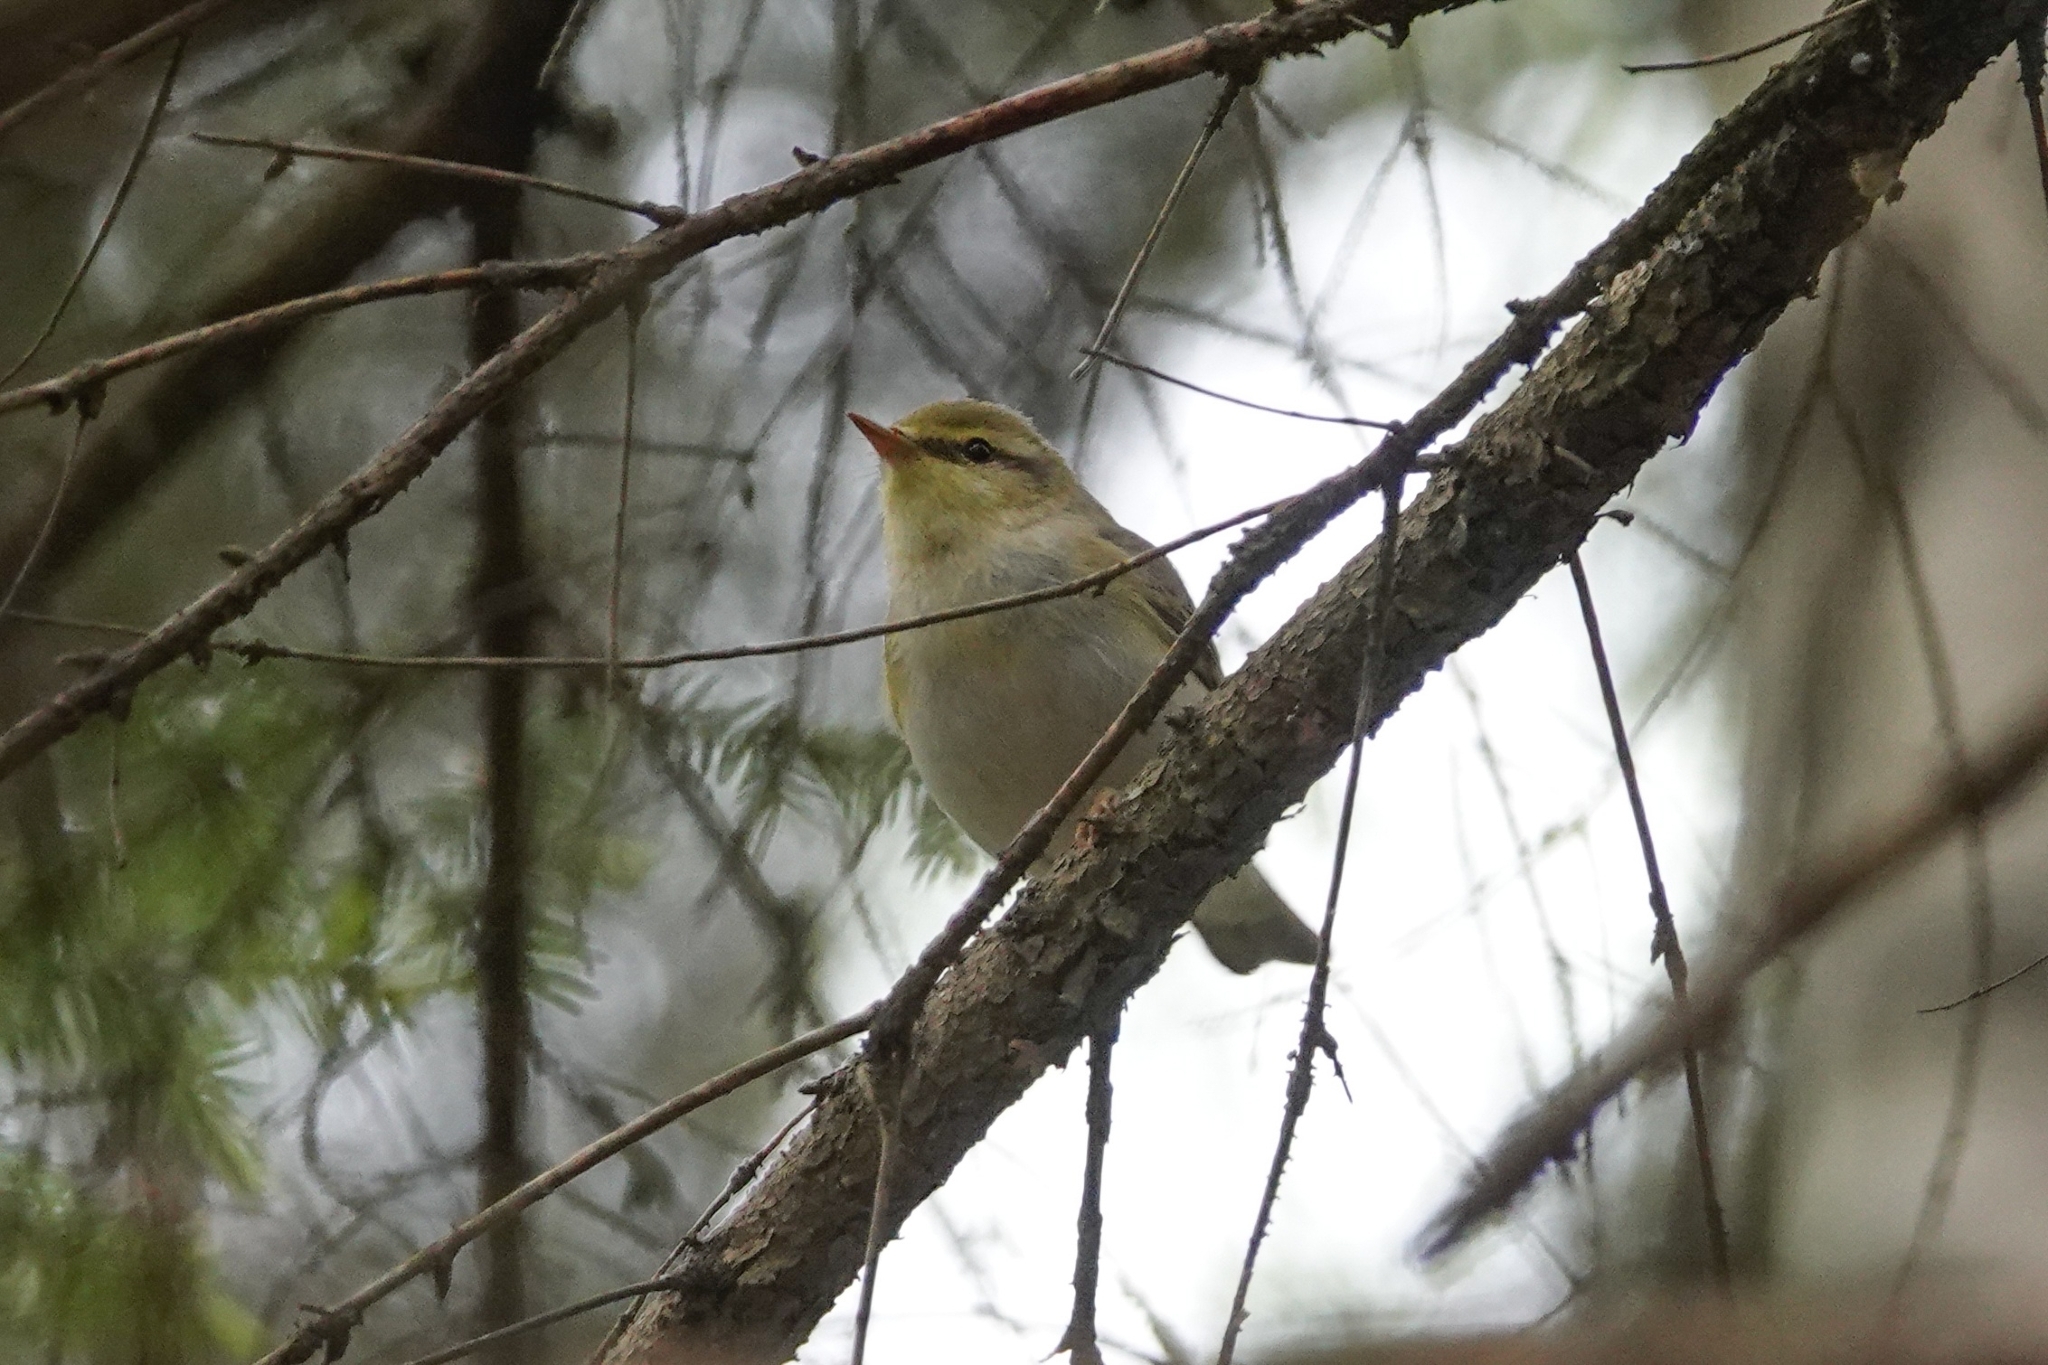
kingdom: Animalia
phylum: Chordata
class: Aves
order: Passeriformes
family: Phylloscopidae
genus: Phylloscopus
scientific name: Phylloscopus sibillatrix
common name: Wood warbler
